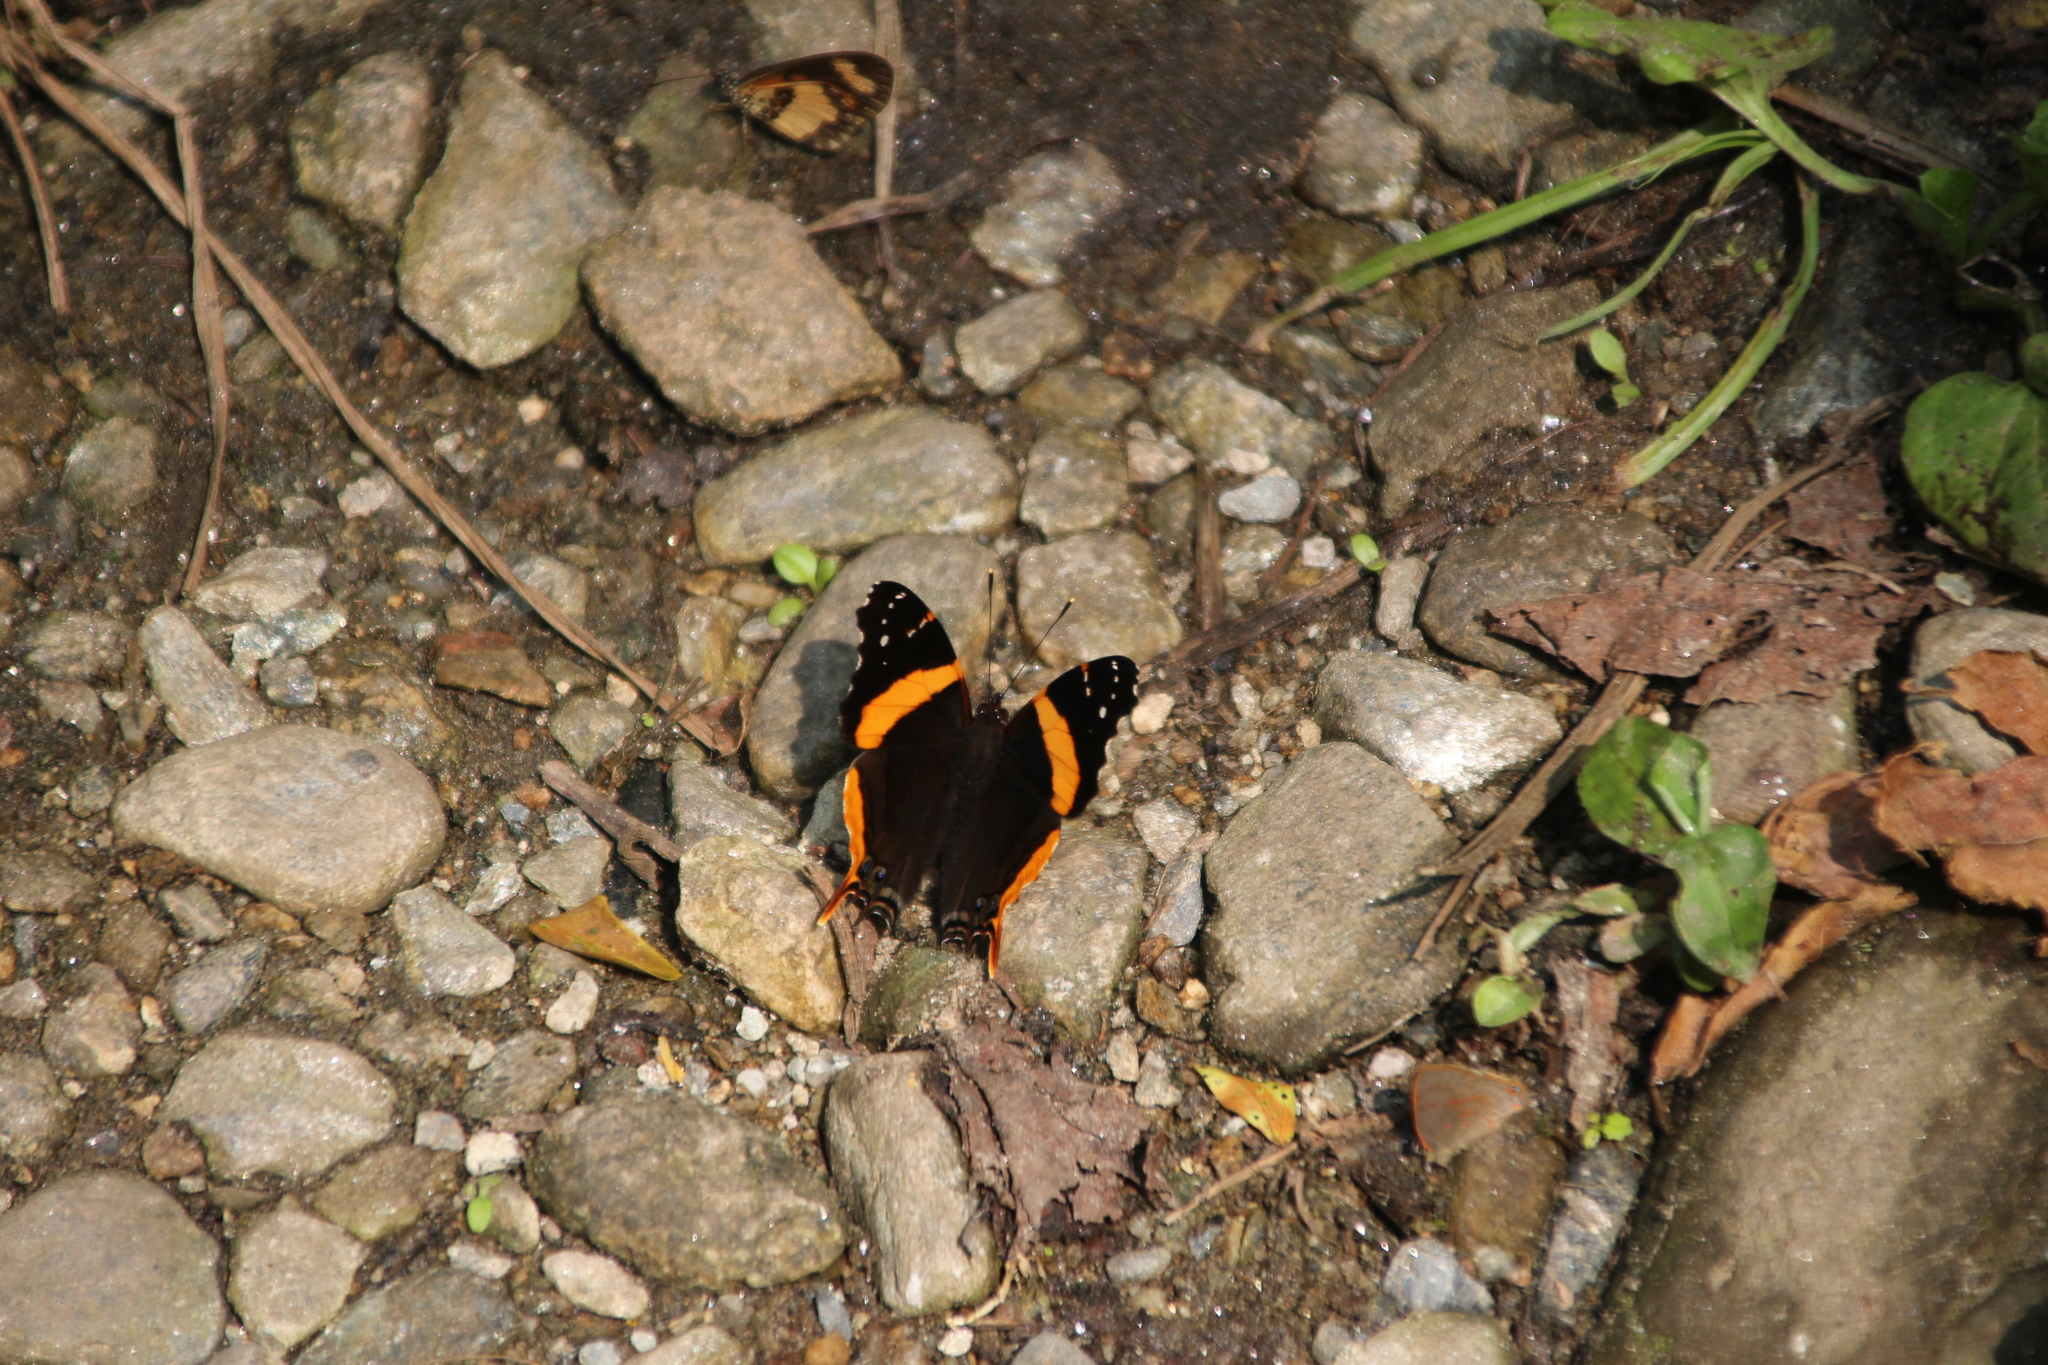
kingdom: Animalia
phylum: Arthropoda
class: Insecta
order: Lepidoptera
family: Nymphalidae
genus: Antanartia
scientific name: Antanartia schaeneia
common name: Long-tailed admiral
